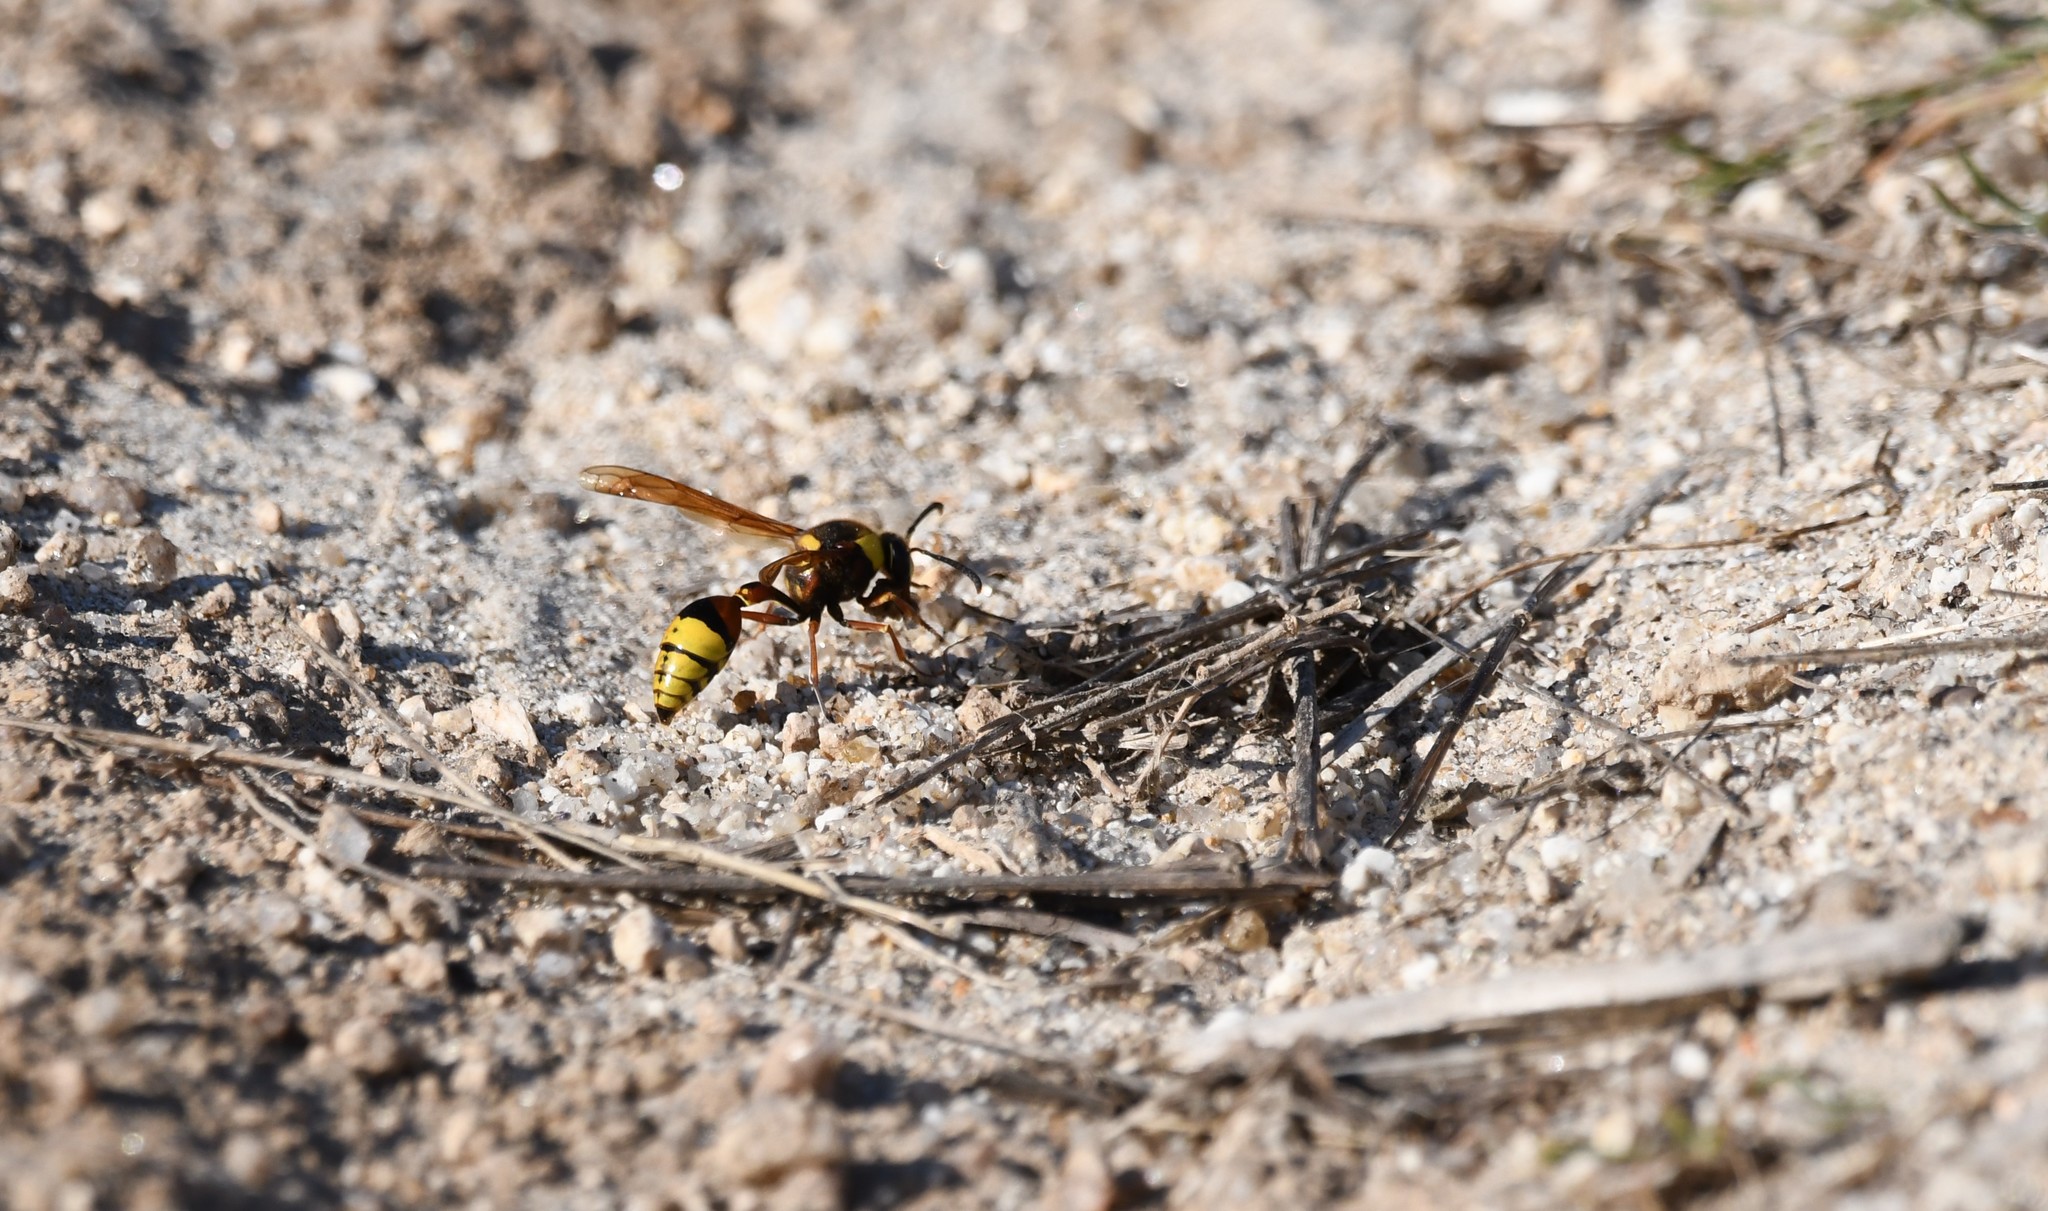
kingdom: Animalia
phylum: Arthropoda
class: Insecta
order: Hymenoptera
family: Eumenidae
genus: Delta
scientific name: Delta unguiculatum
